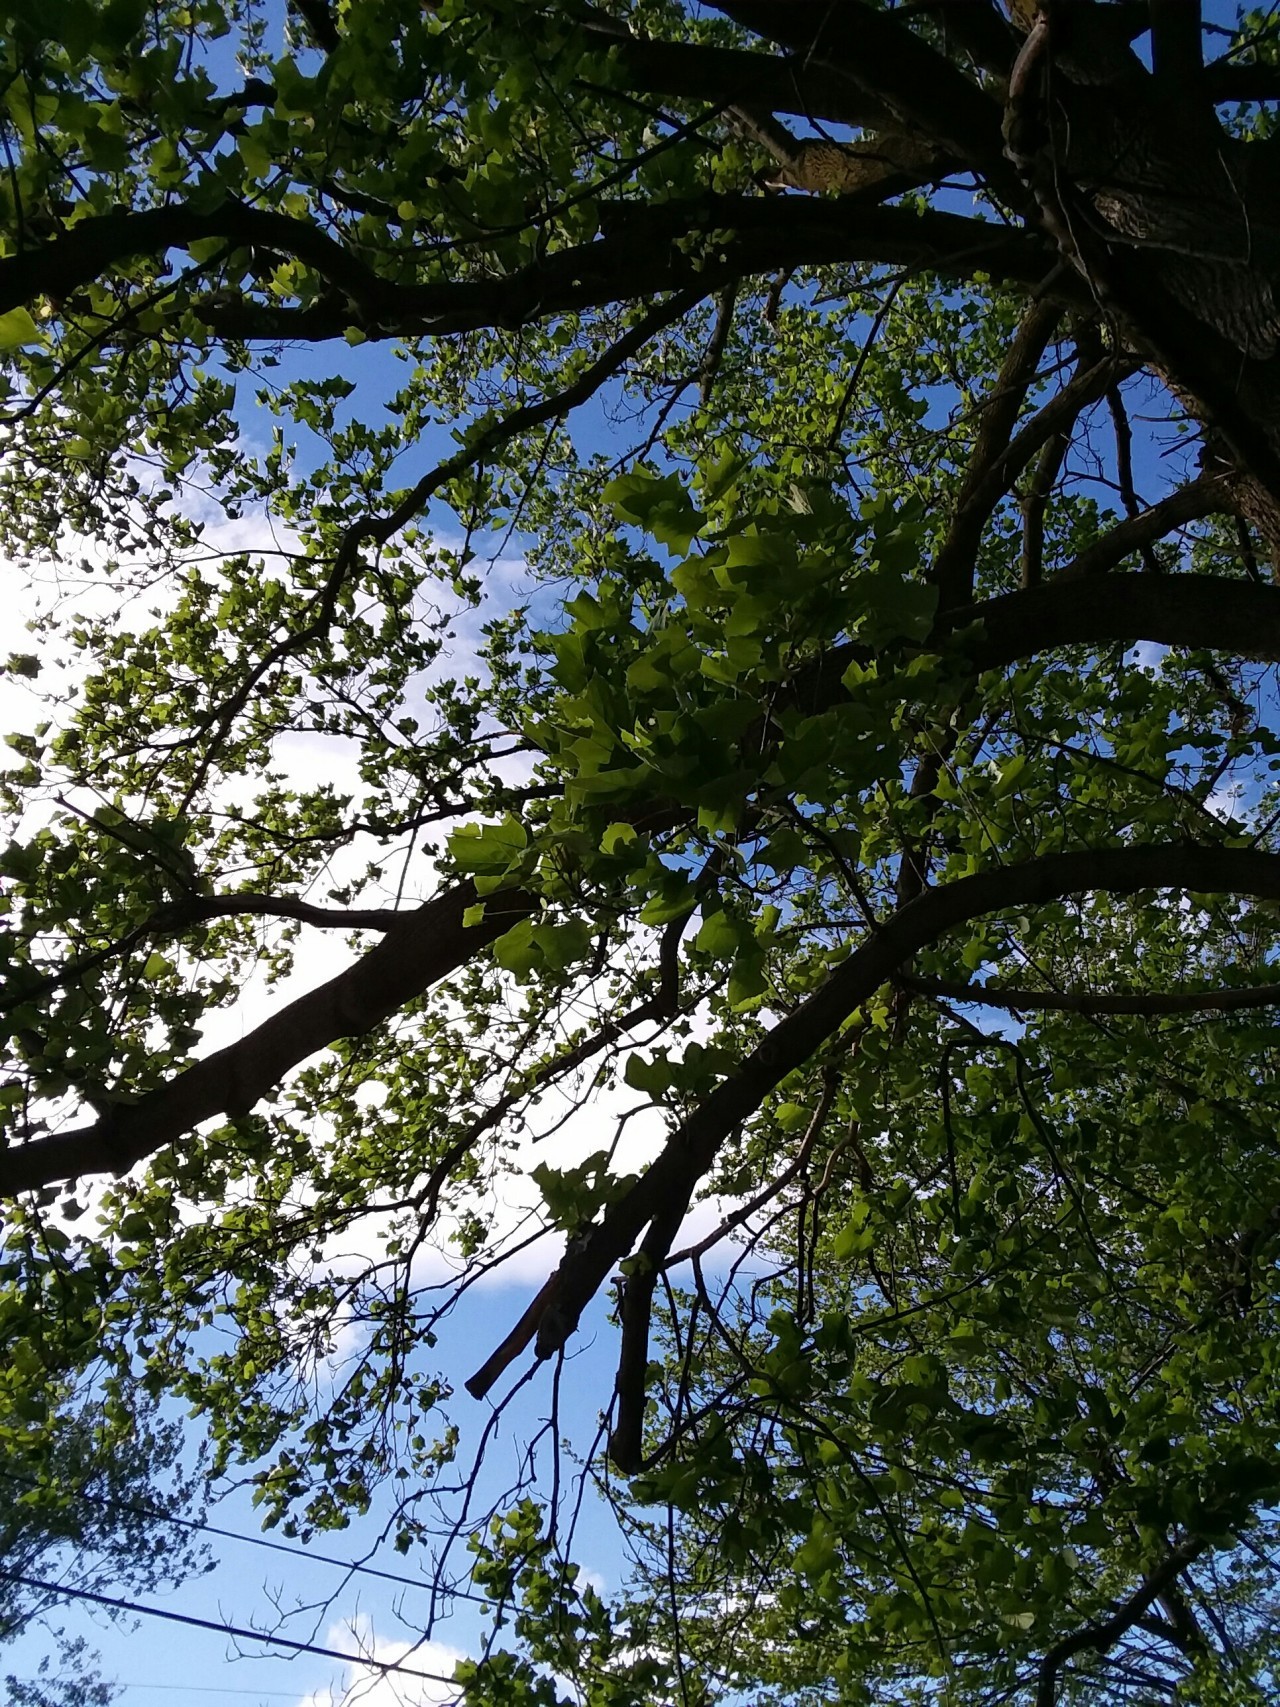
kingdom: Plantae
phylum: Tracheophyta
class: Magnoliopsida
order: Magnoliales
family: Magnoliaceae
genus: Liriodendron
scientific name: Liriodendron tulipifera
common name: Tulip tree
